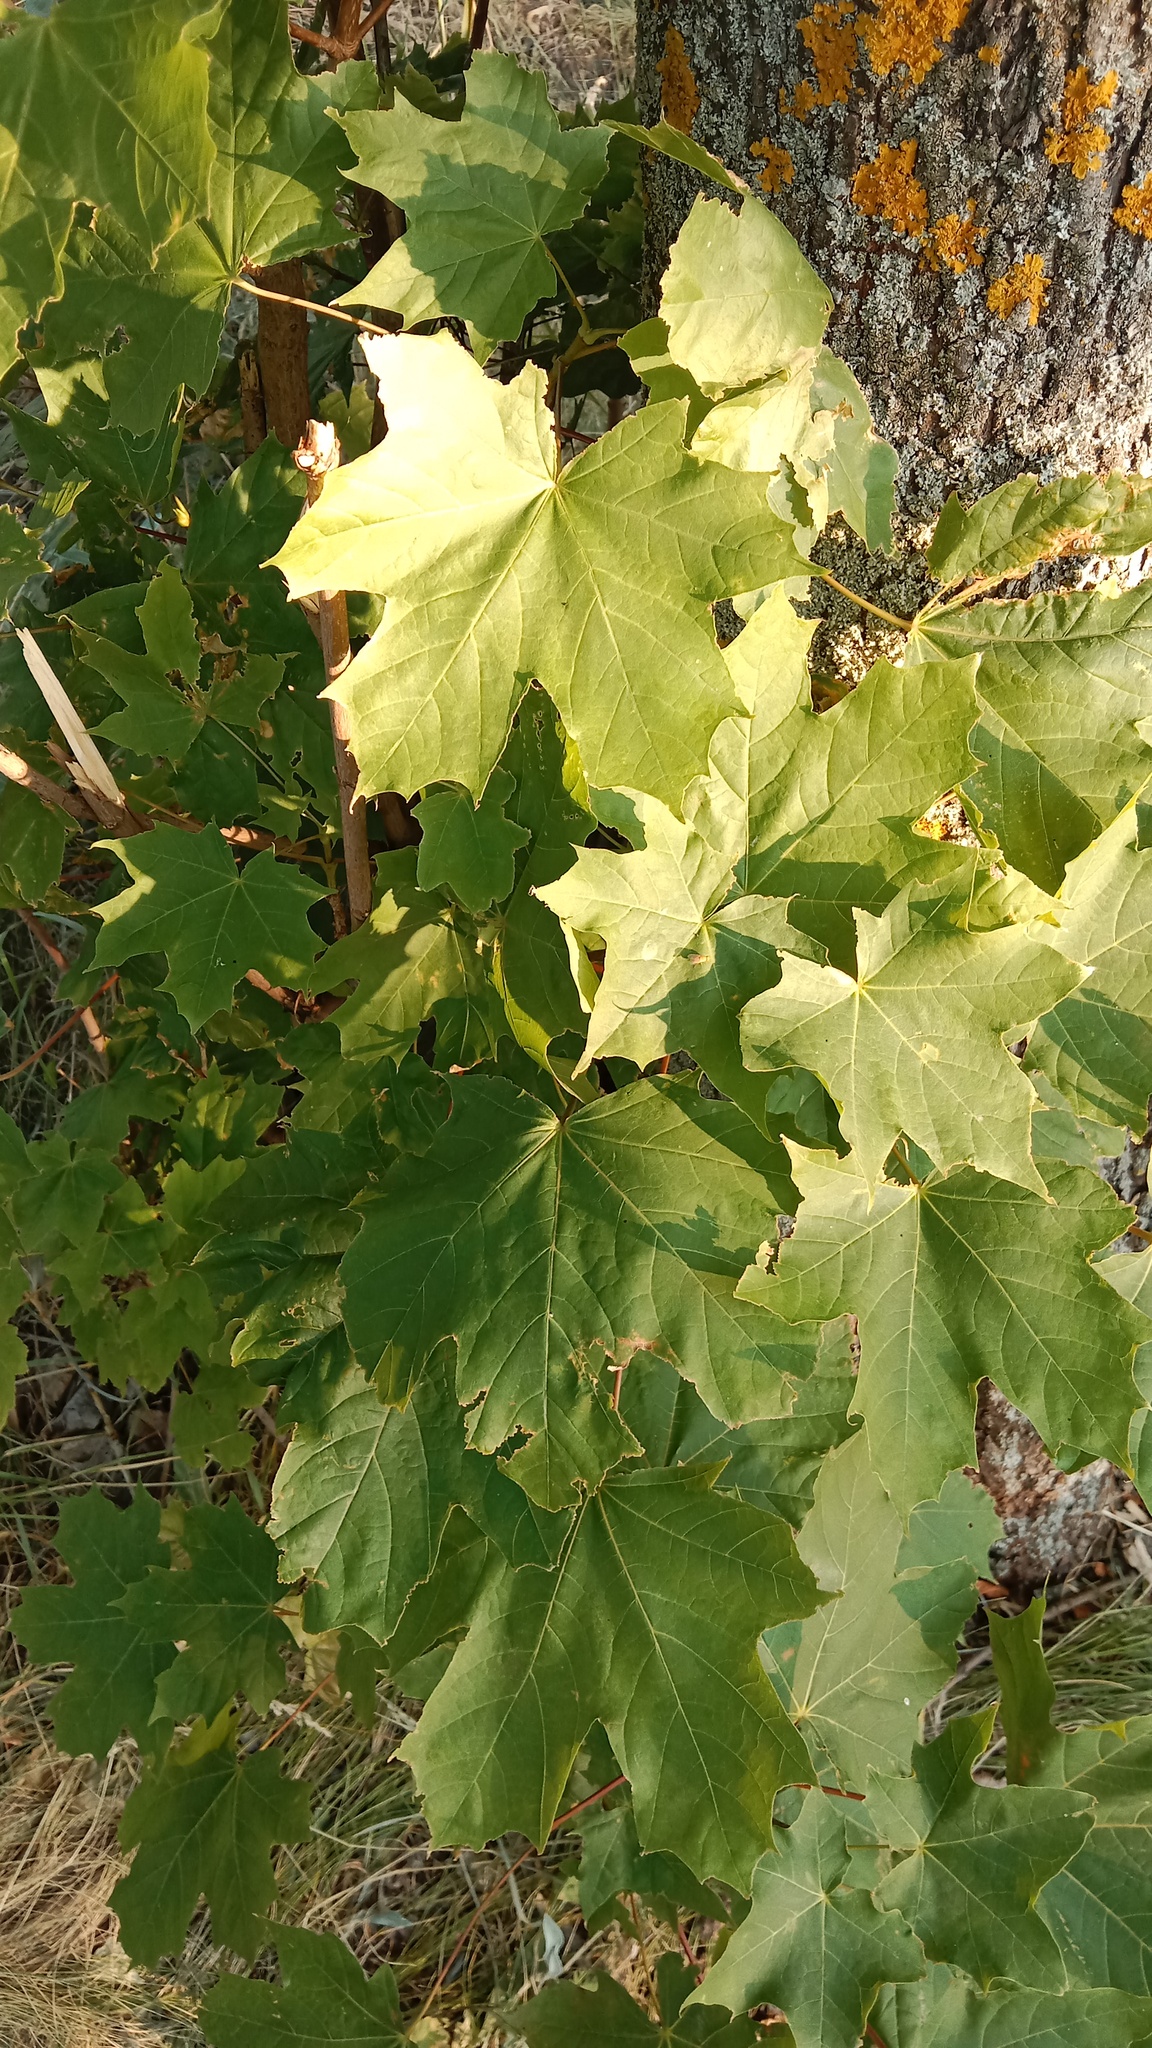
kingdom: Plantae
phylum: Tracheophyta
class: Magnoliopsida
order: Sapindales
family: Sapindaceae
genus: Acer
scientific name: Acer platanoides
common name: Norway maple
